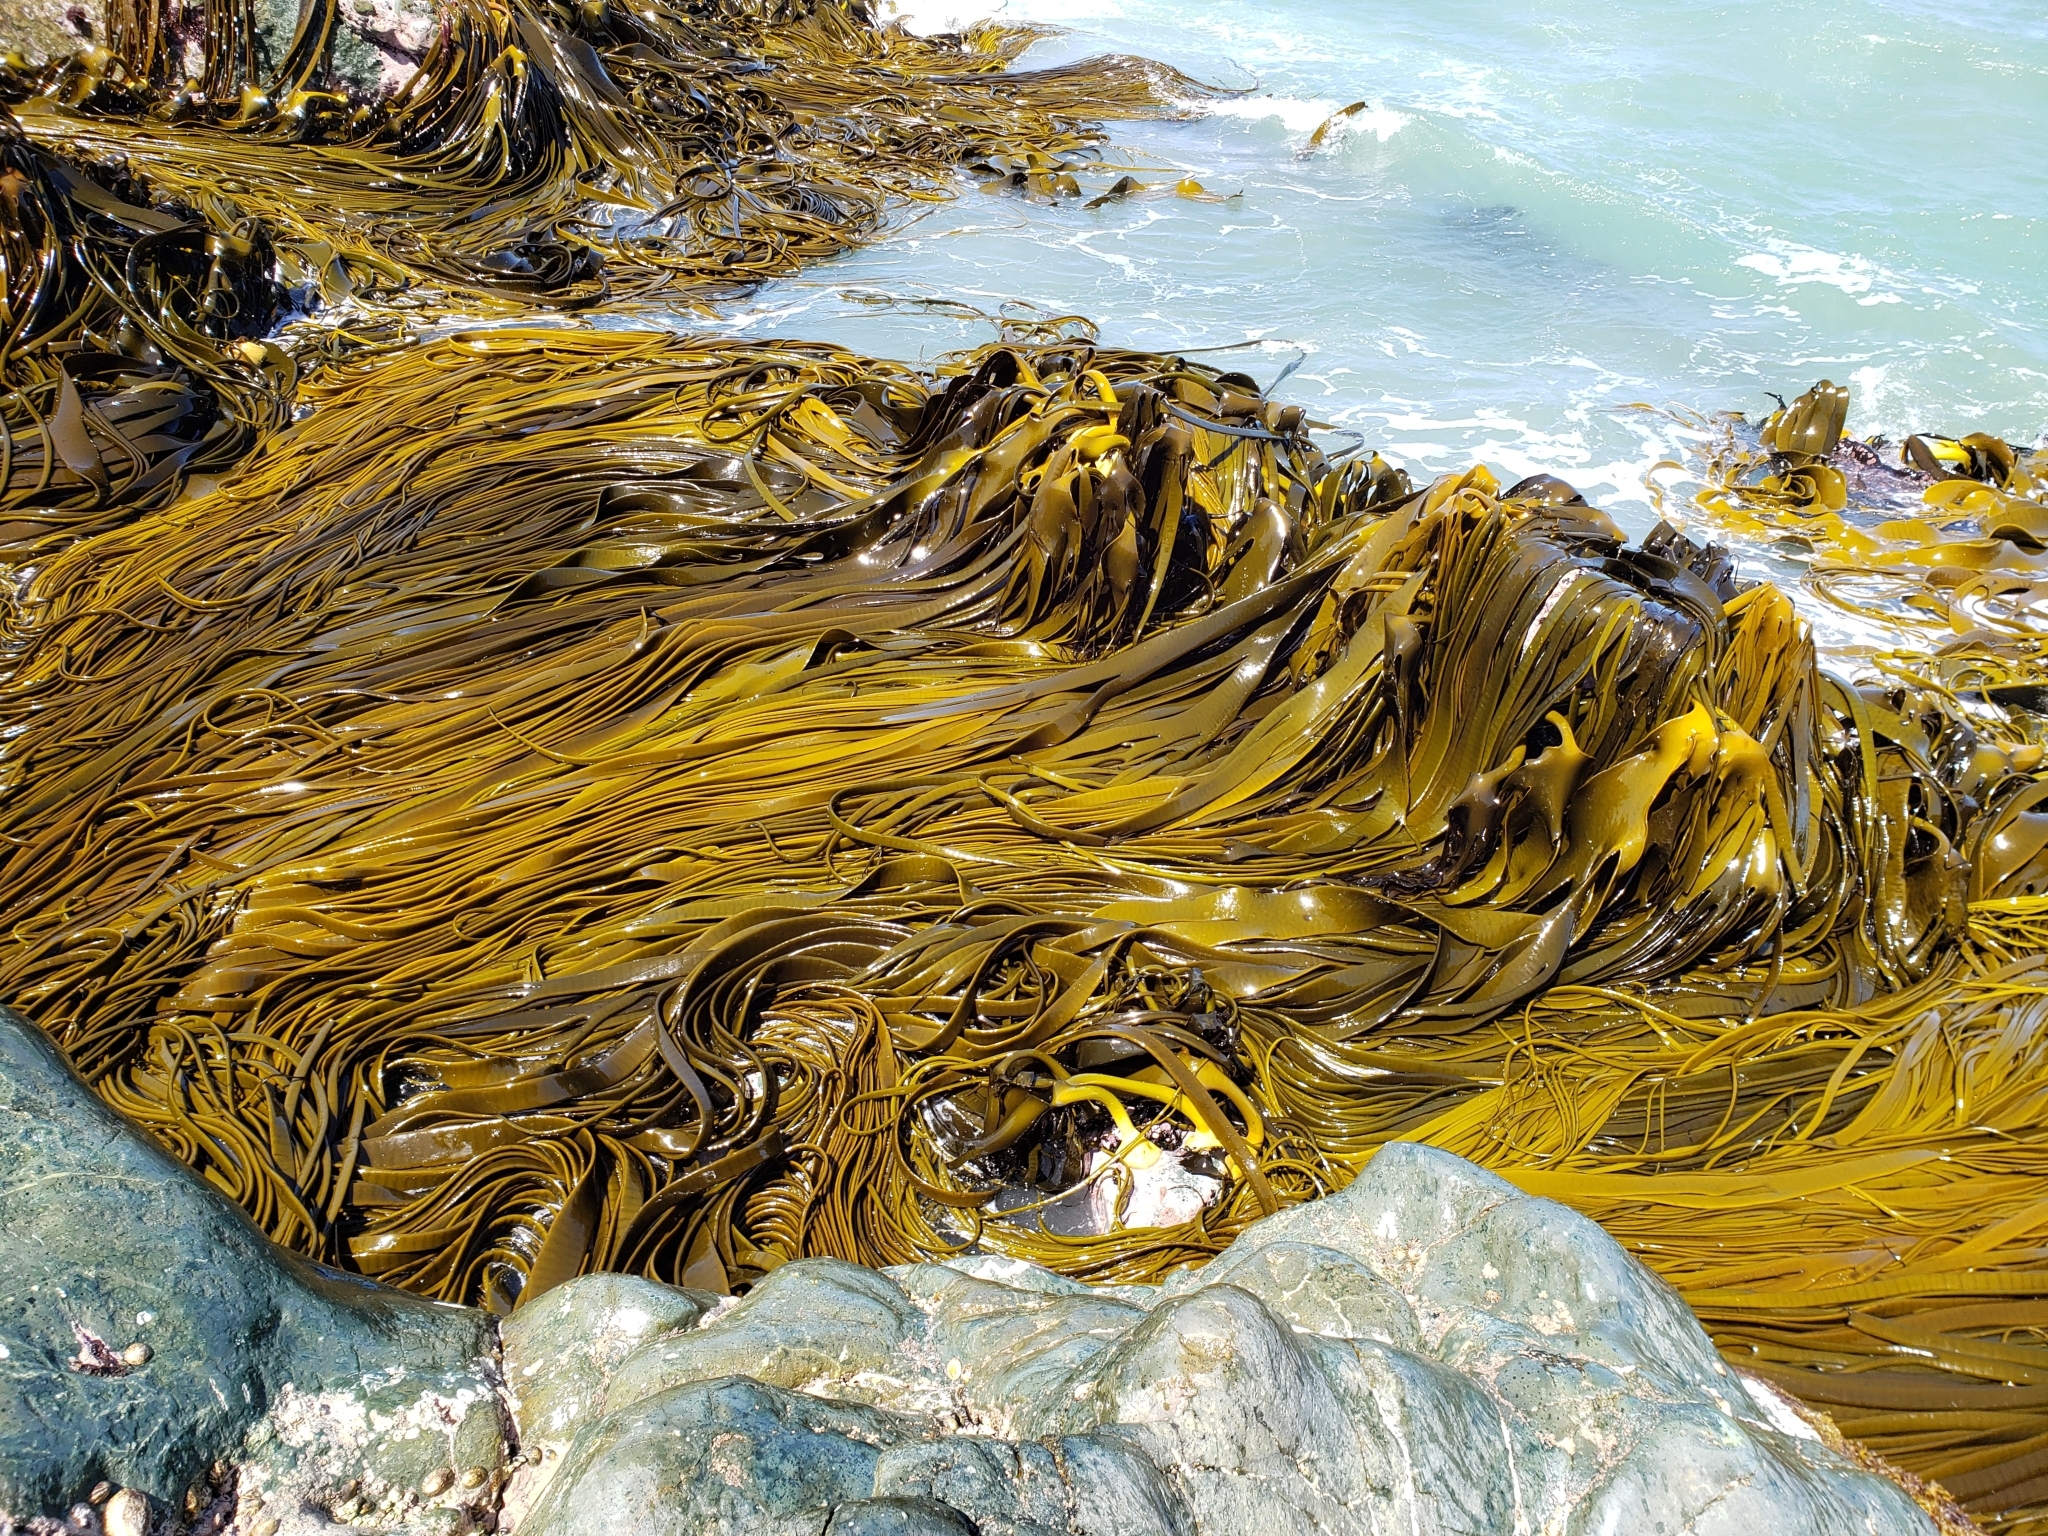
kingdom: Chromista
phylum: Ochrophyta
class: Phaeophyceae
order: Fucales
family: Durvillaeaceae
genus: Durvillaea
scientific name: Durvillaea antarctica
